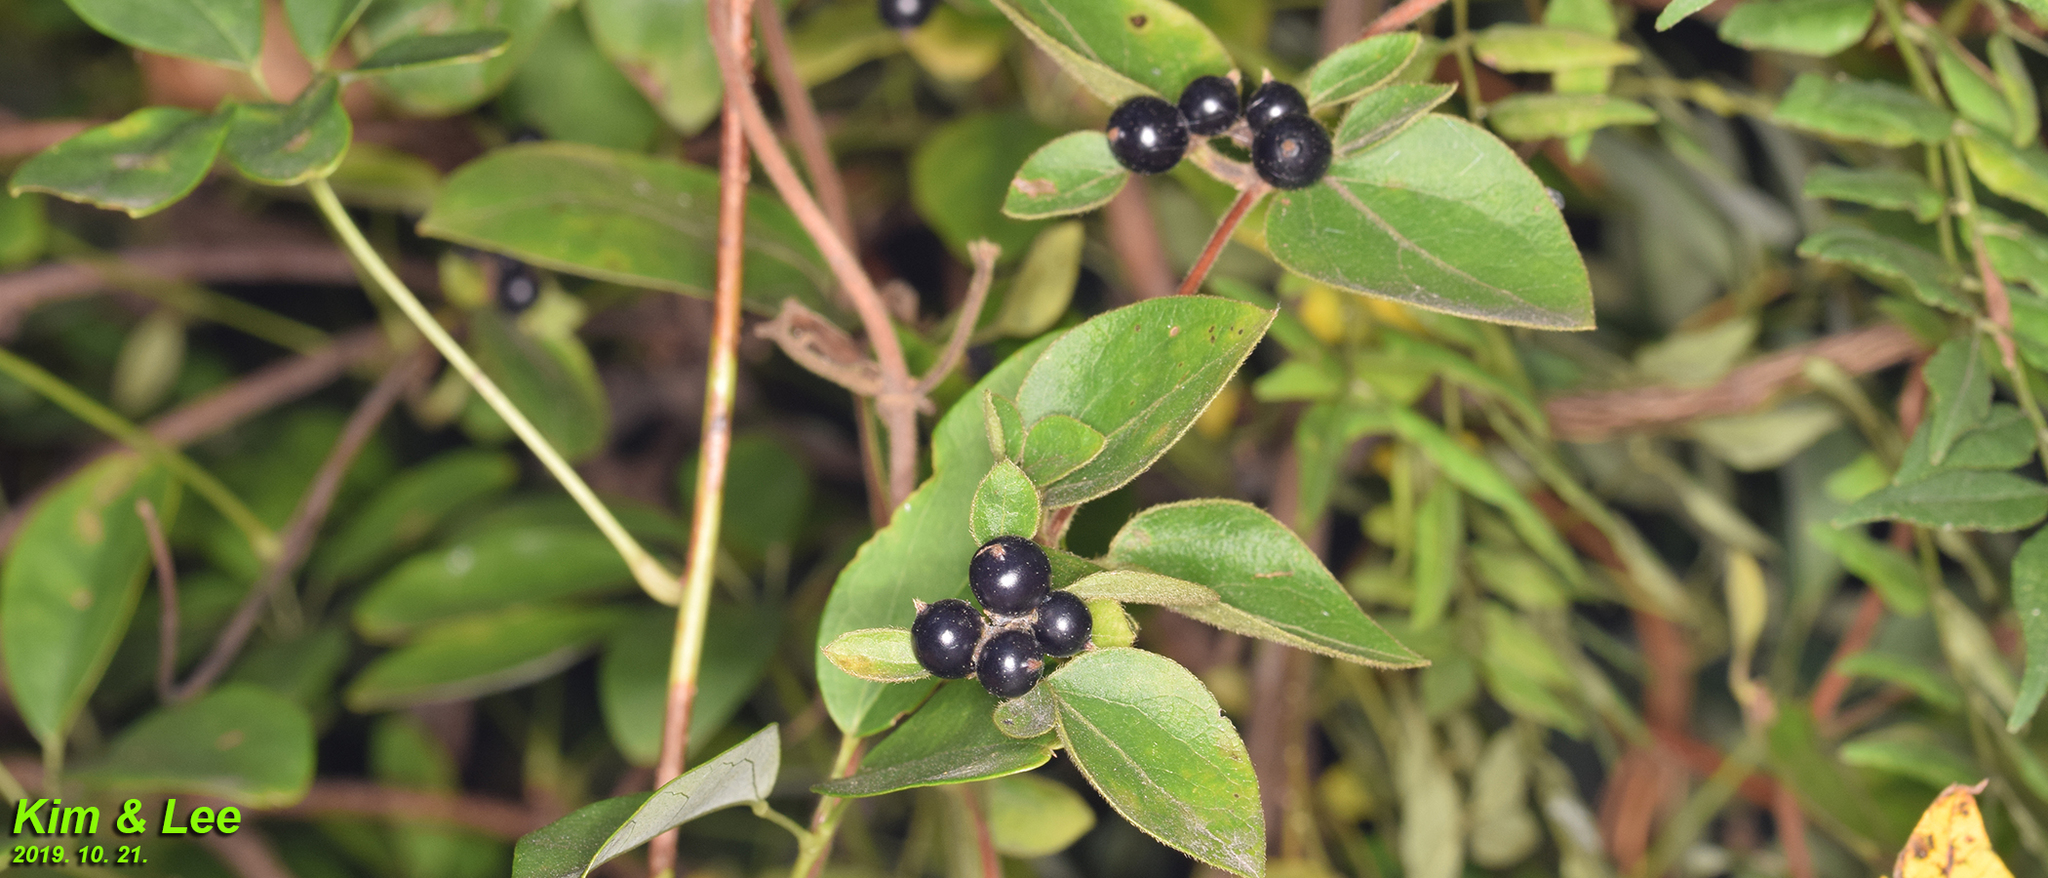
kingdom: Plantae
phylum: Tracheophyta
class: Magnoliopsida
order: Dipsacales
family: Caprifoliaceae
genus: Lonicera
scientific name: Lonicera japonica
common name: Japanese honeysuckle
